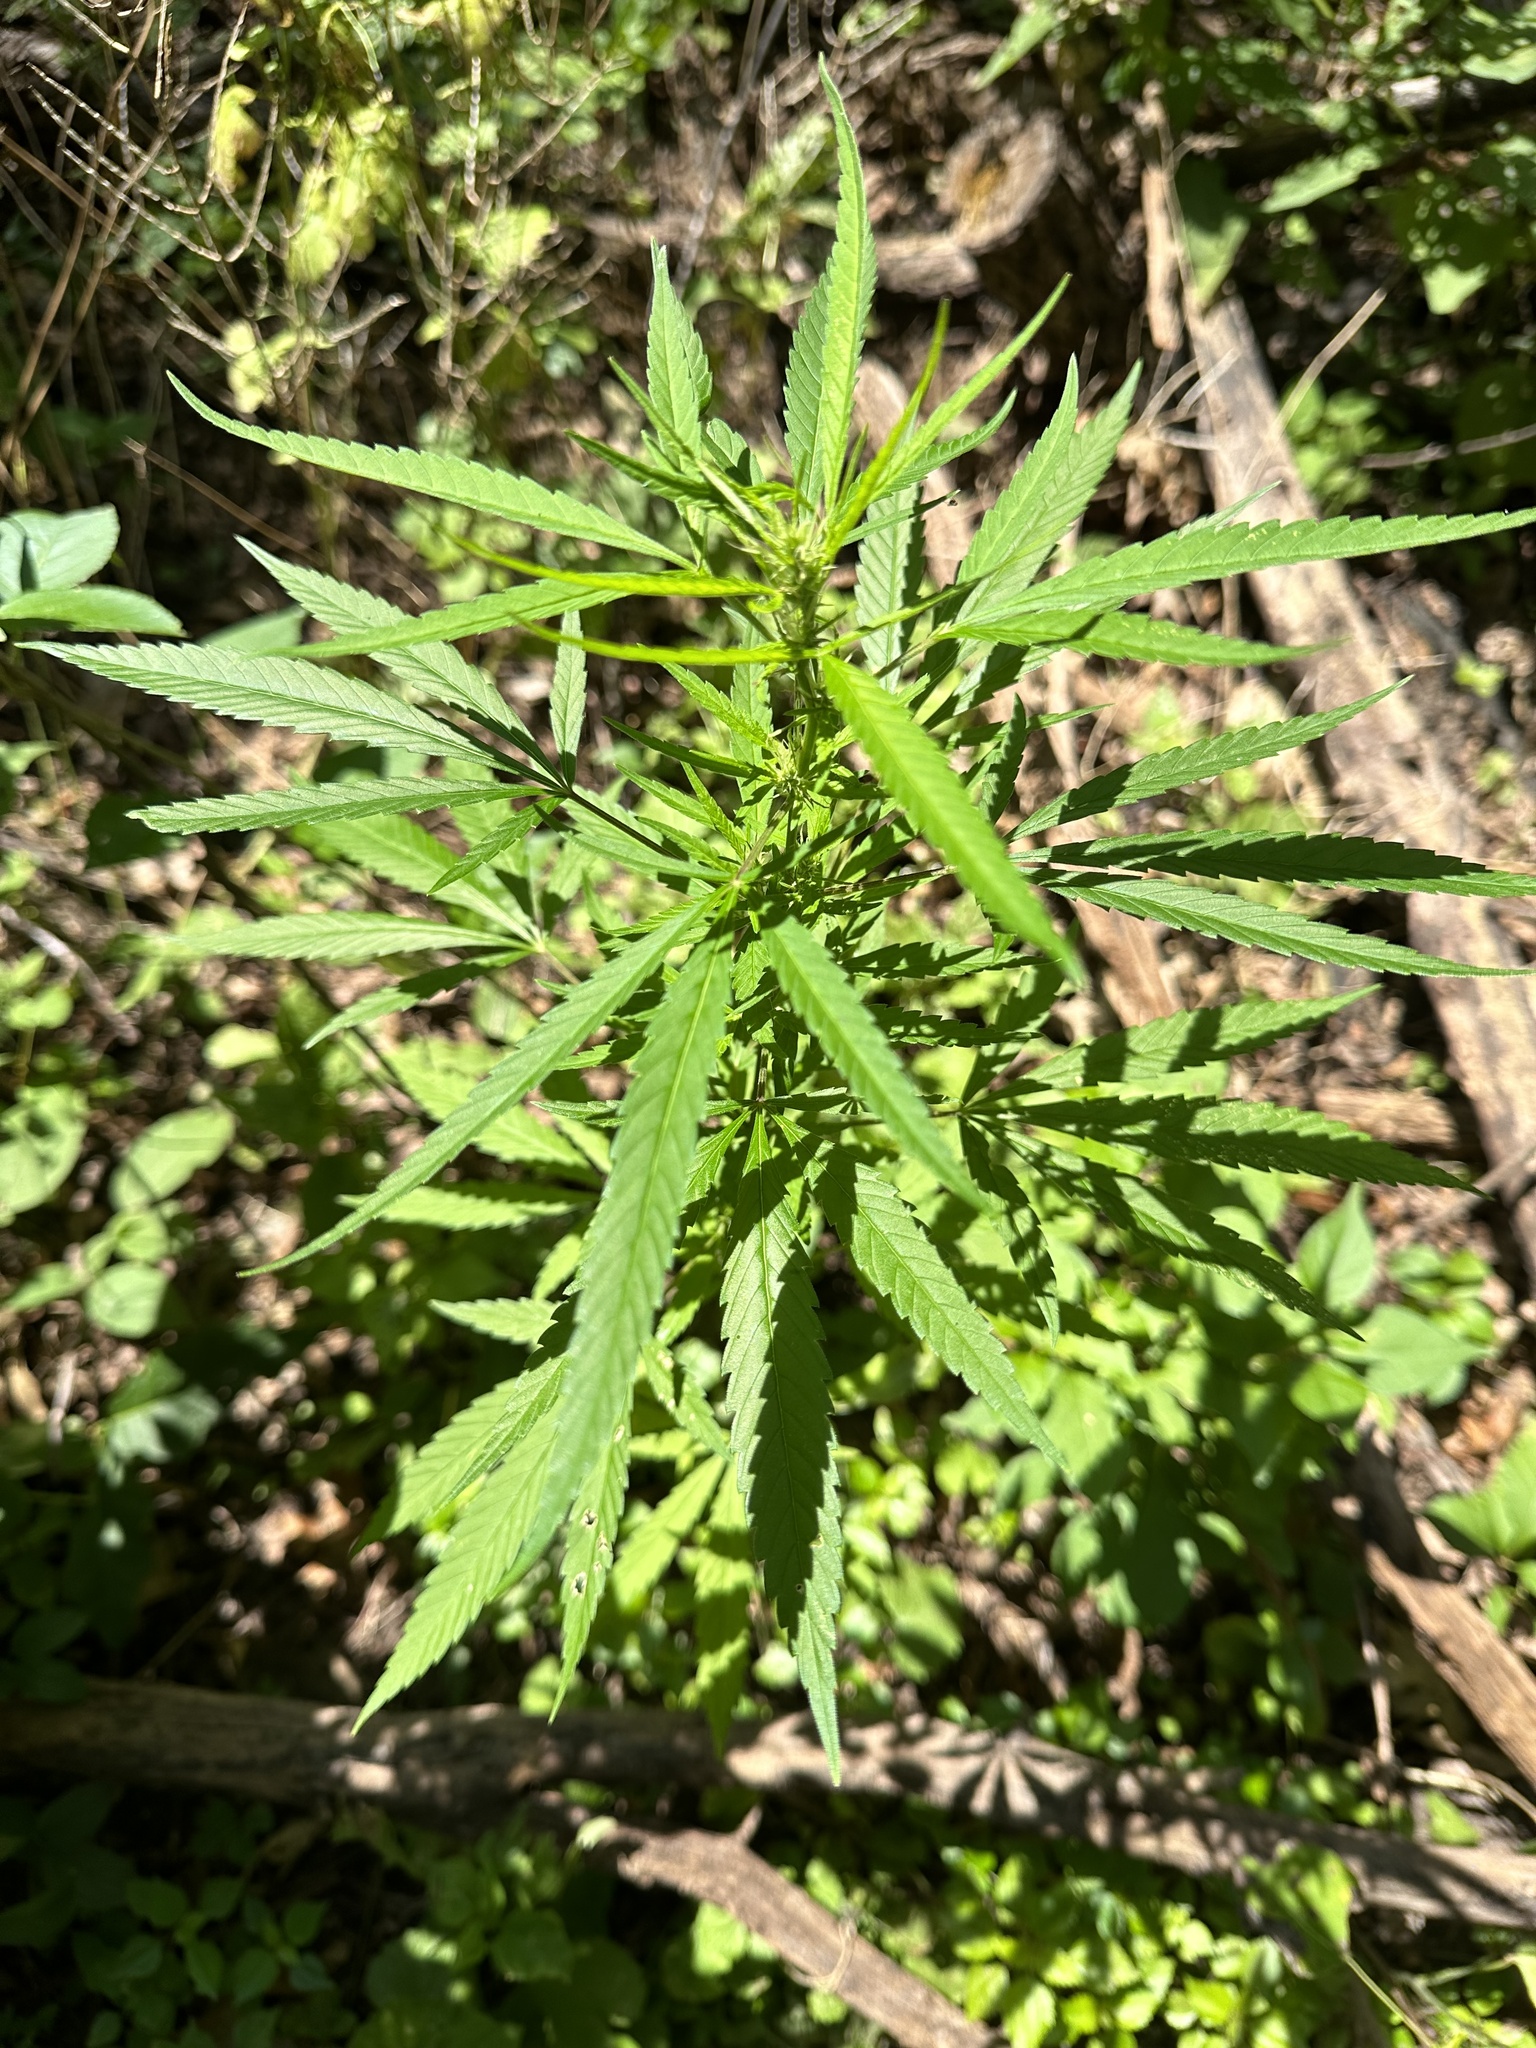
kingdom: Plantae
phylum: Tracheophyta
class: Magnoliopsida
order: Rosales
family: Cannabaceae
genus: Cannabis
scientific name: Cannabis sativa
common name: Hemp
